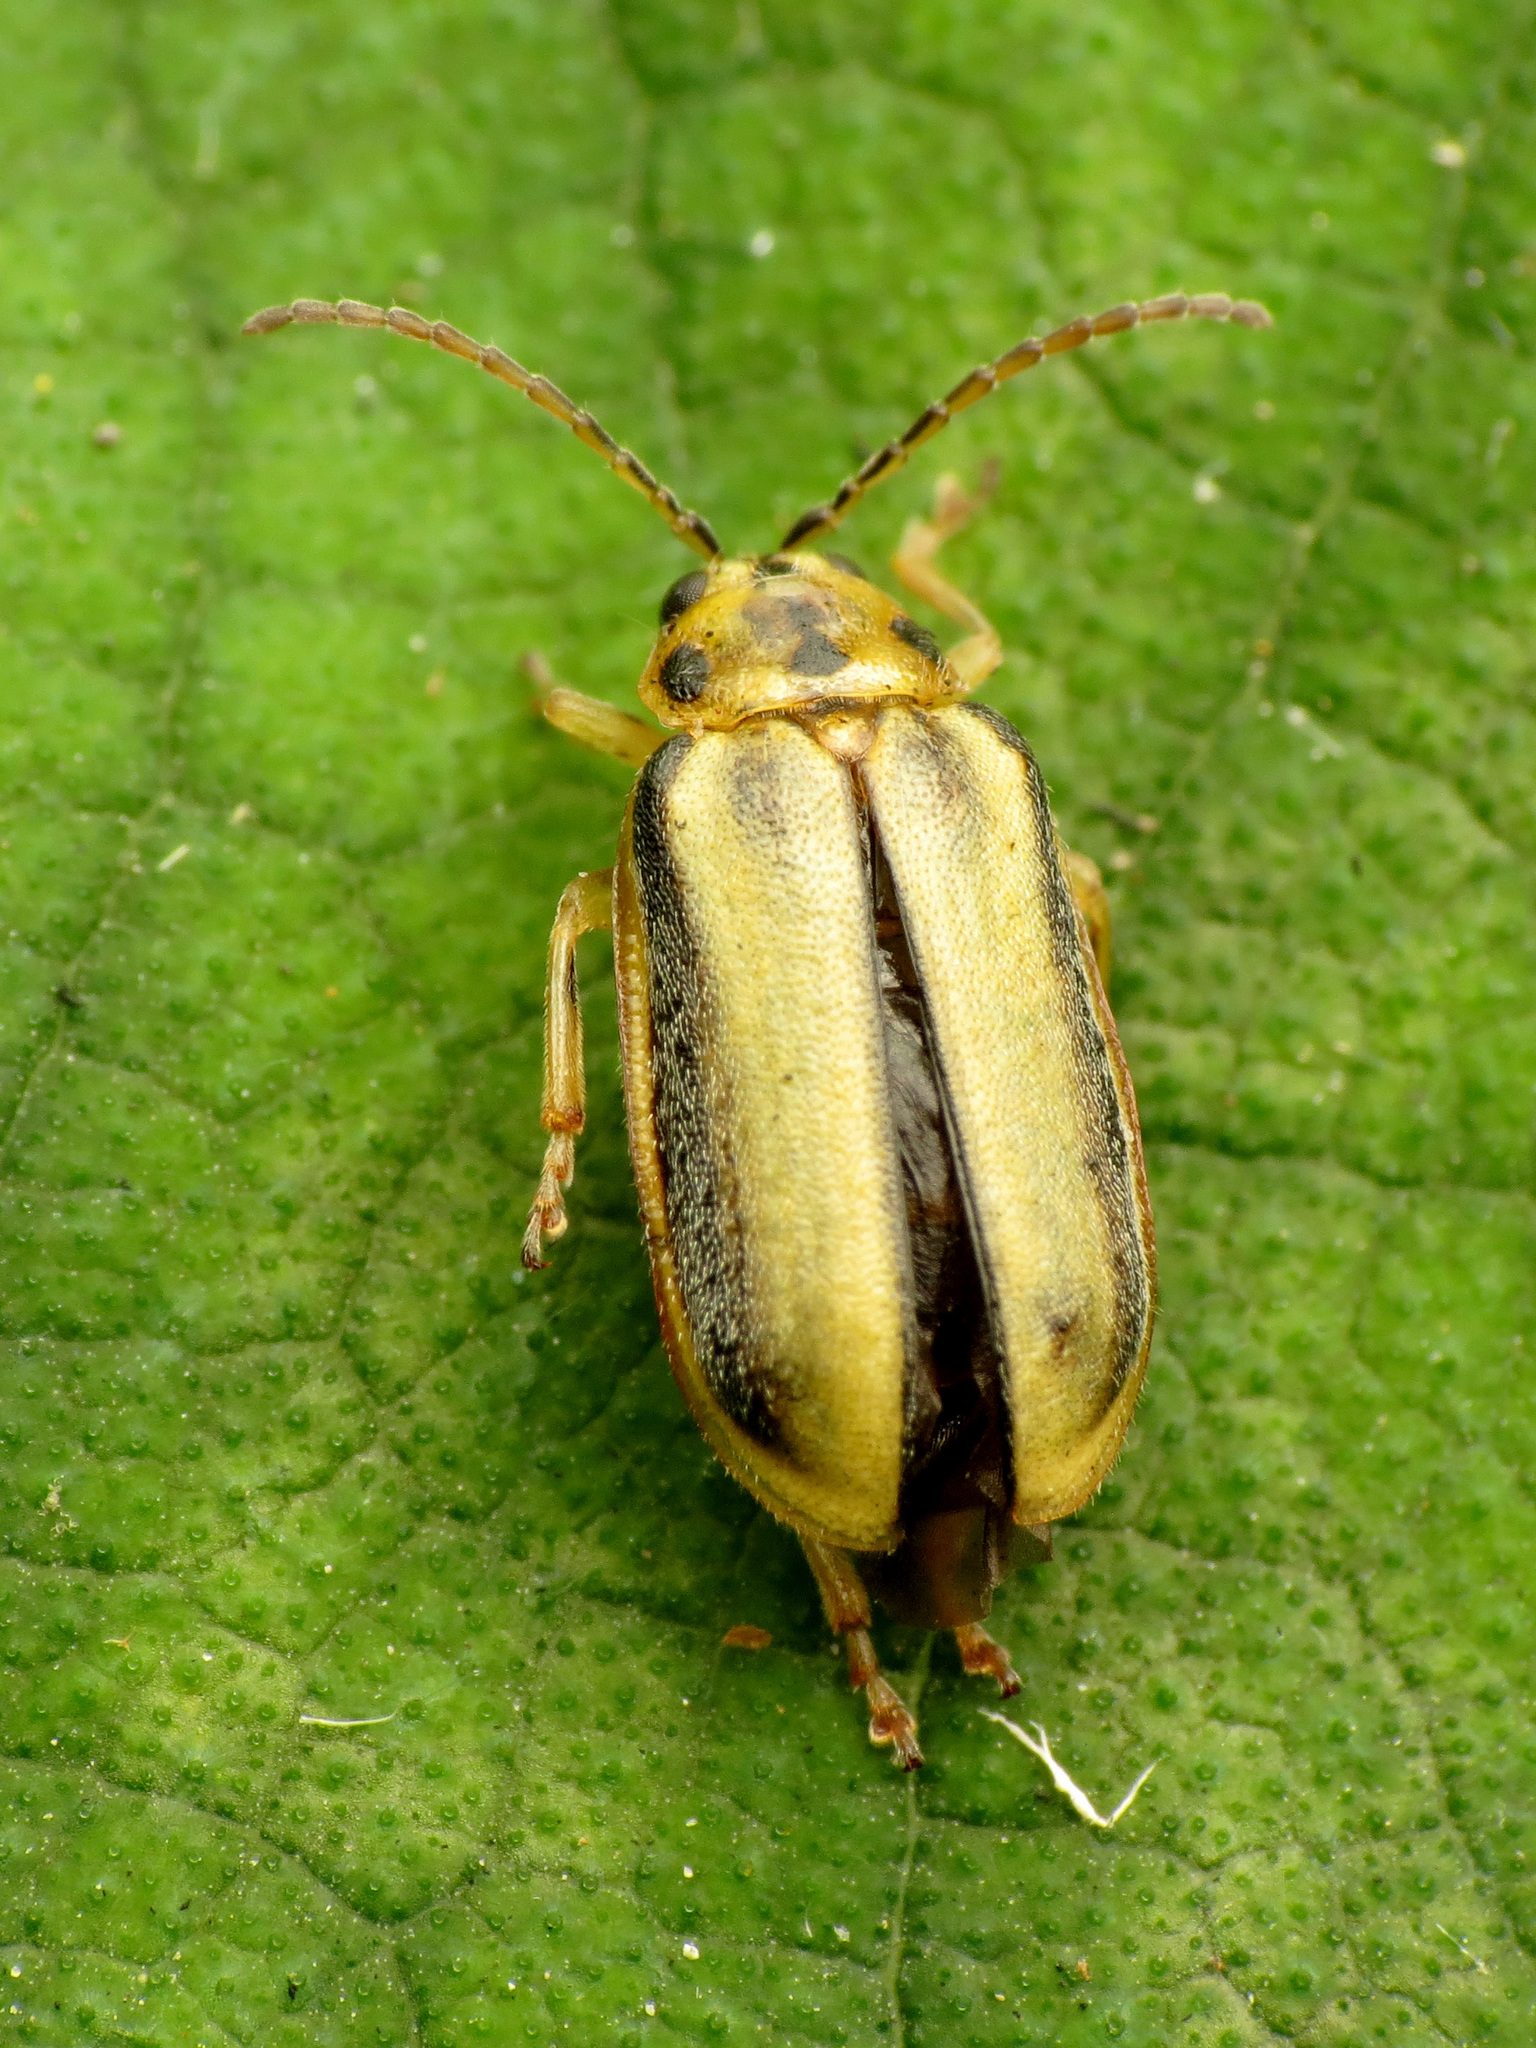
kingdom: Animalia
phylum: Arthropoda
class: Insecta
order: Coleoptera
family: Chrysomelidae
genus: Xanthogaleruca
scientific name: Xanthogaleruca luteola
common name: Elm leaf beetle
